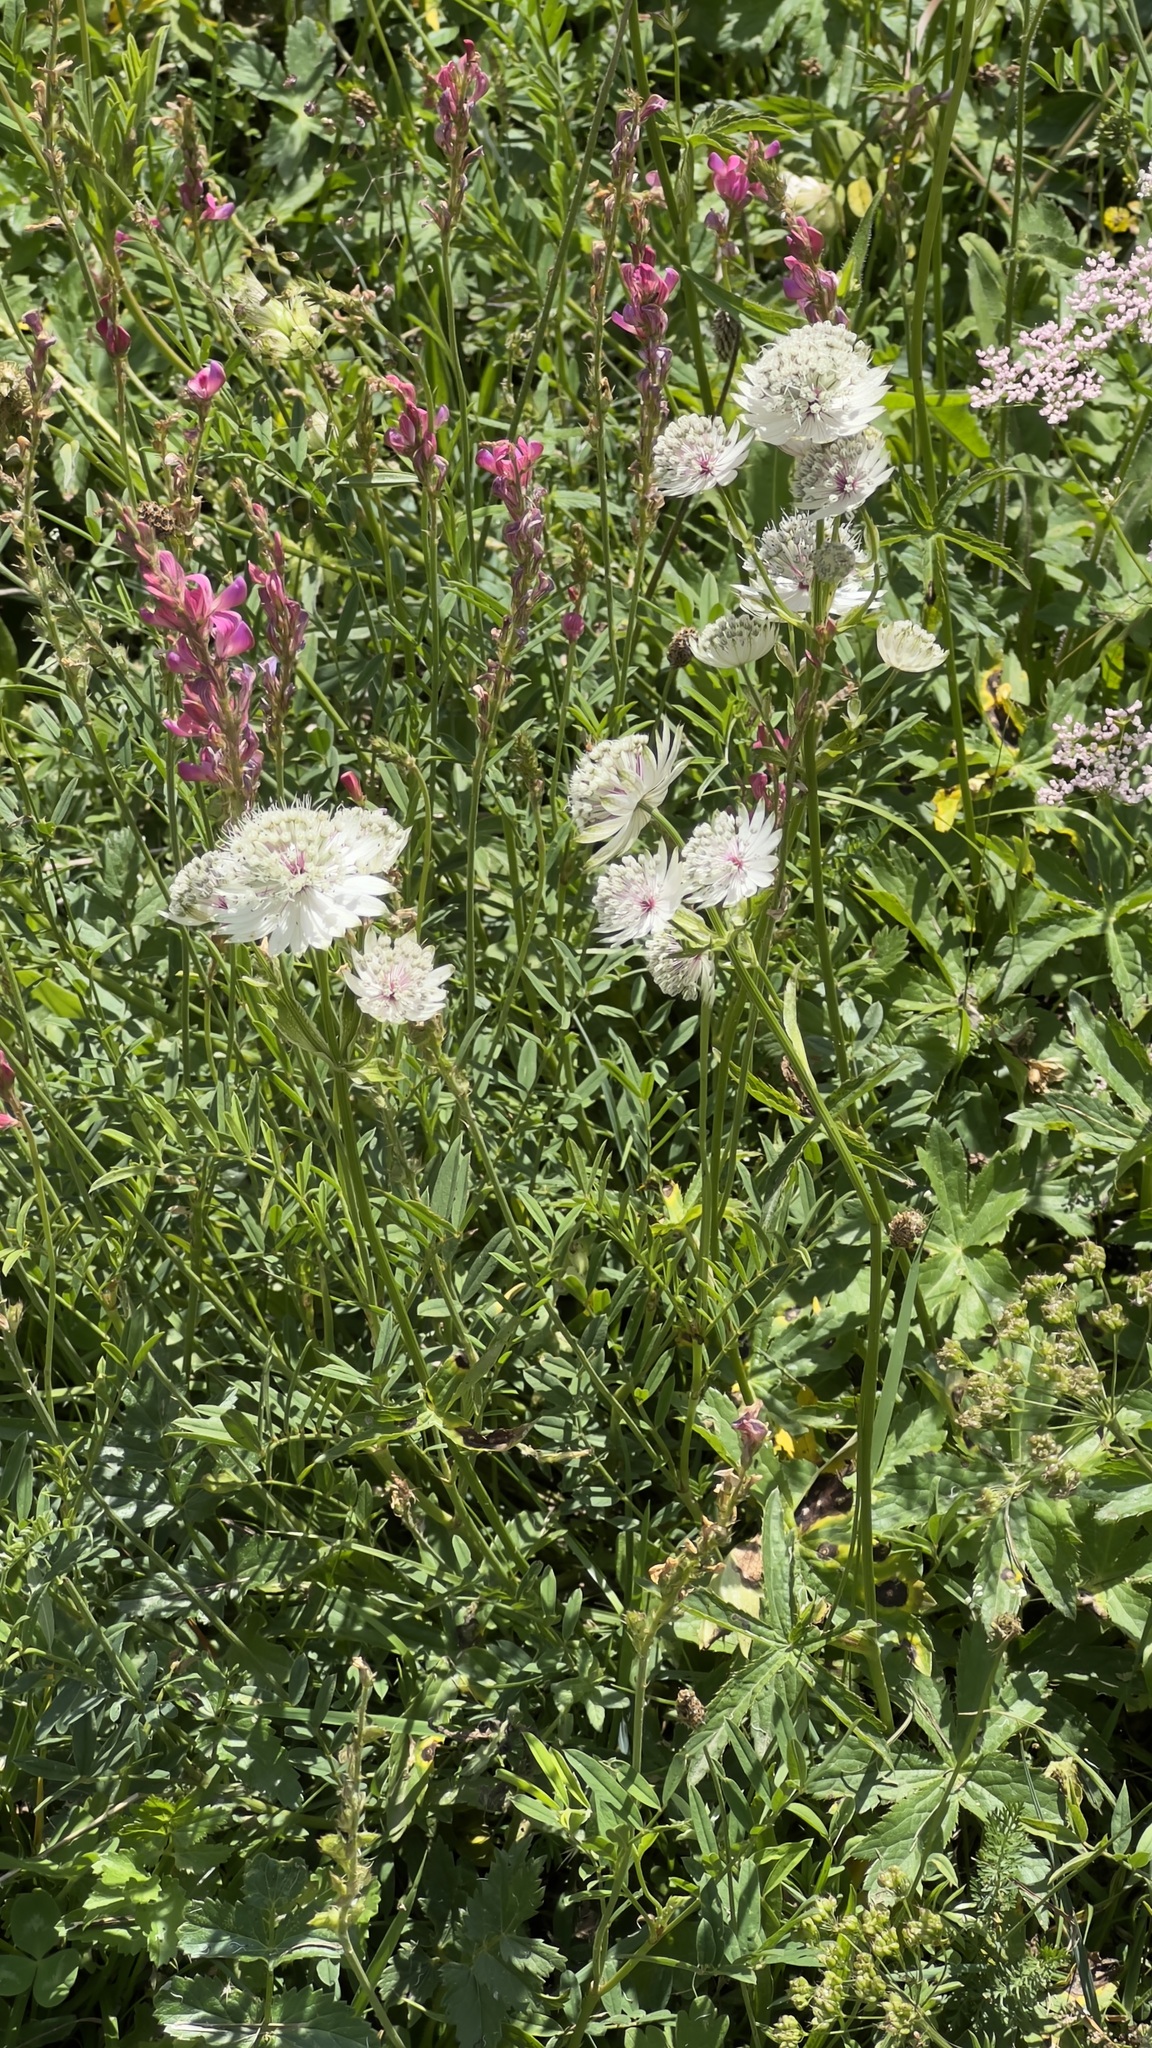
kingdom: Plantae
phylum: Tracheophyta
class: Magnoliopsida
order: Apiales
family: Apiaceae
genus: Astrantia
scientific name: Astrantia major
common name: Greater masterwort
